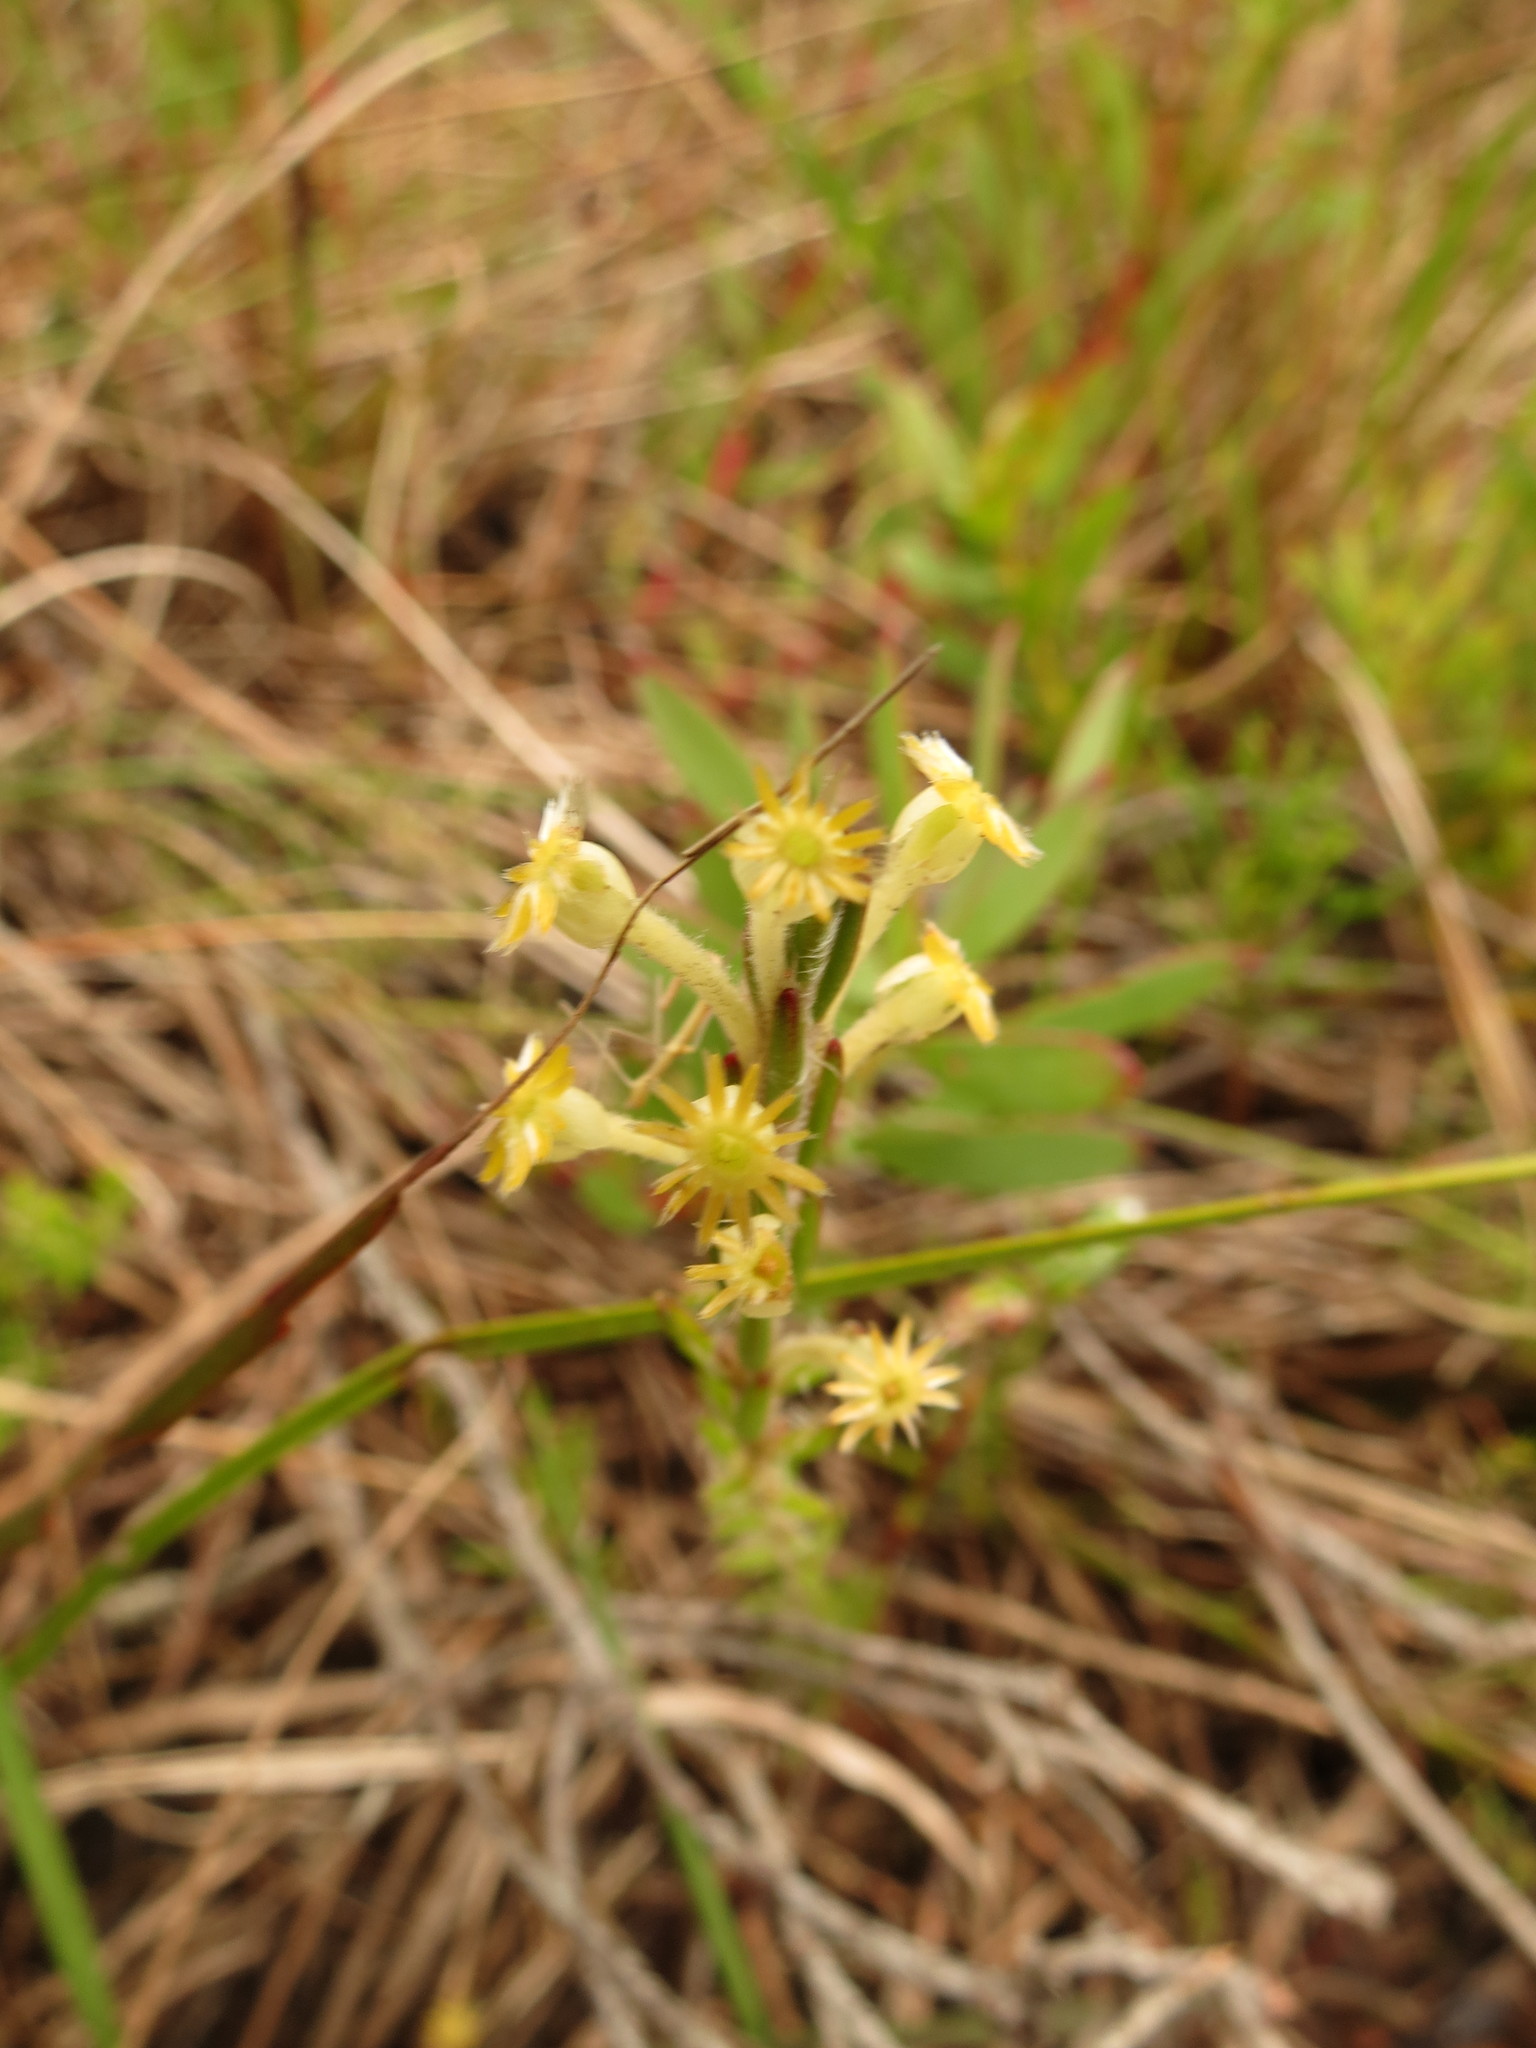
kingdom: Plantae
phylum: Tracheophyta
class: Magnoliopsida
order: Malvales
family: Thymelaeaceae
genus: Struthiola
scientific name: Struthiola fasciata
